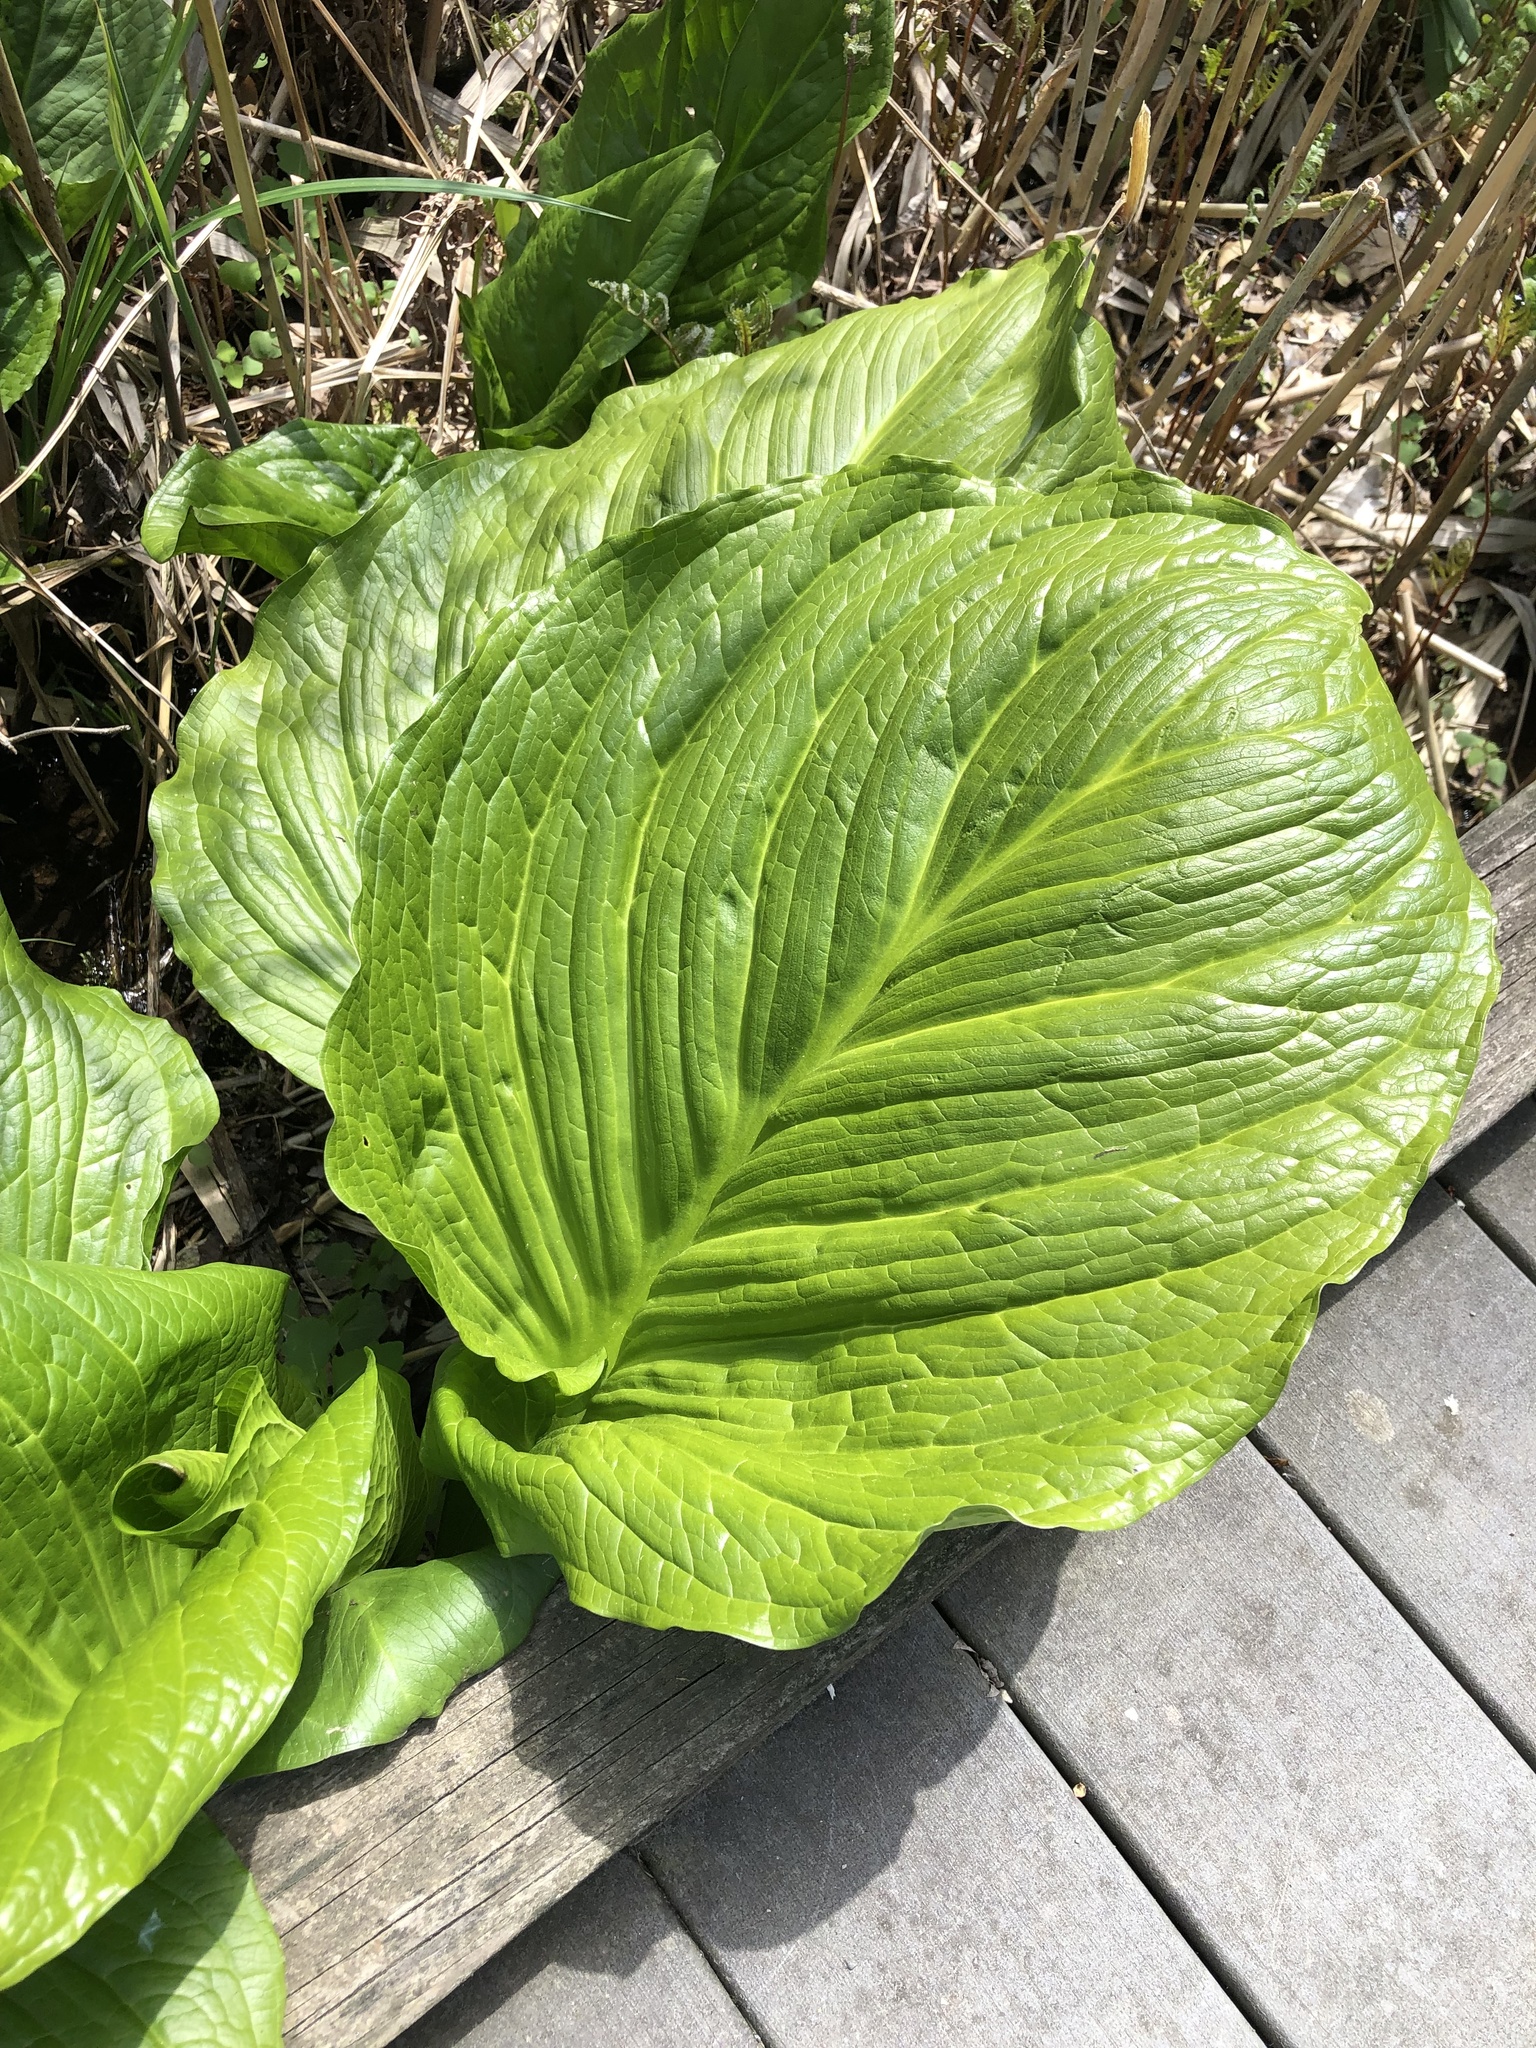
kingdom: Plantae
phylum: Tracheophyta
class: Liliopsida
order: Alismatales
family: Araceae
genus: Symplocarpus
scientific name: Symplocarpus foetidus
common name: Eastern skunk cabbage
